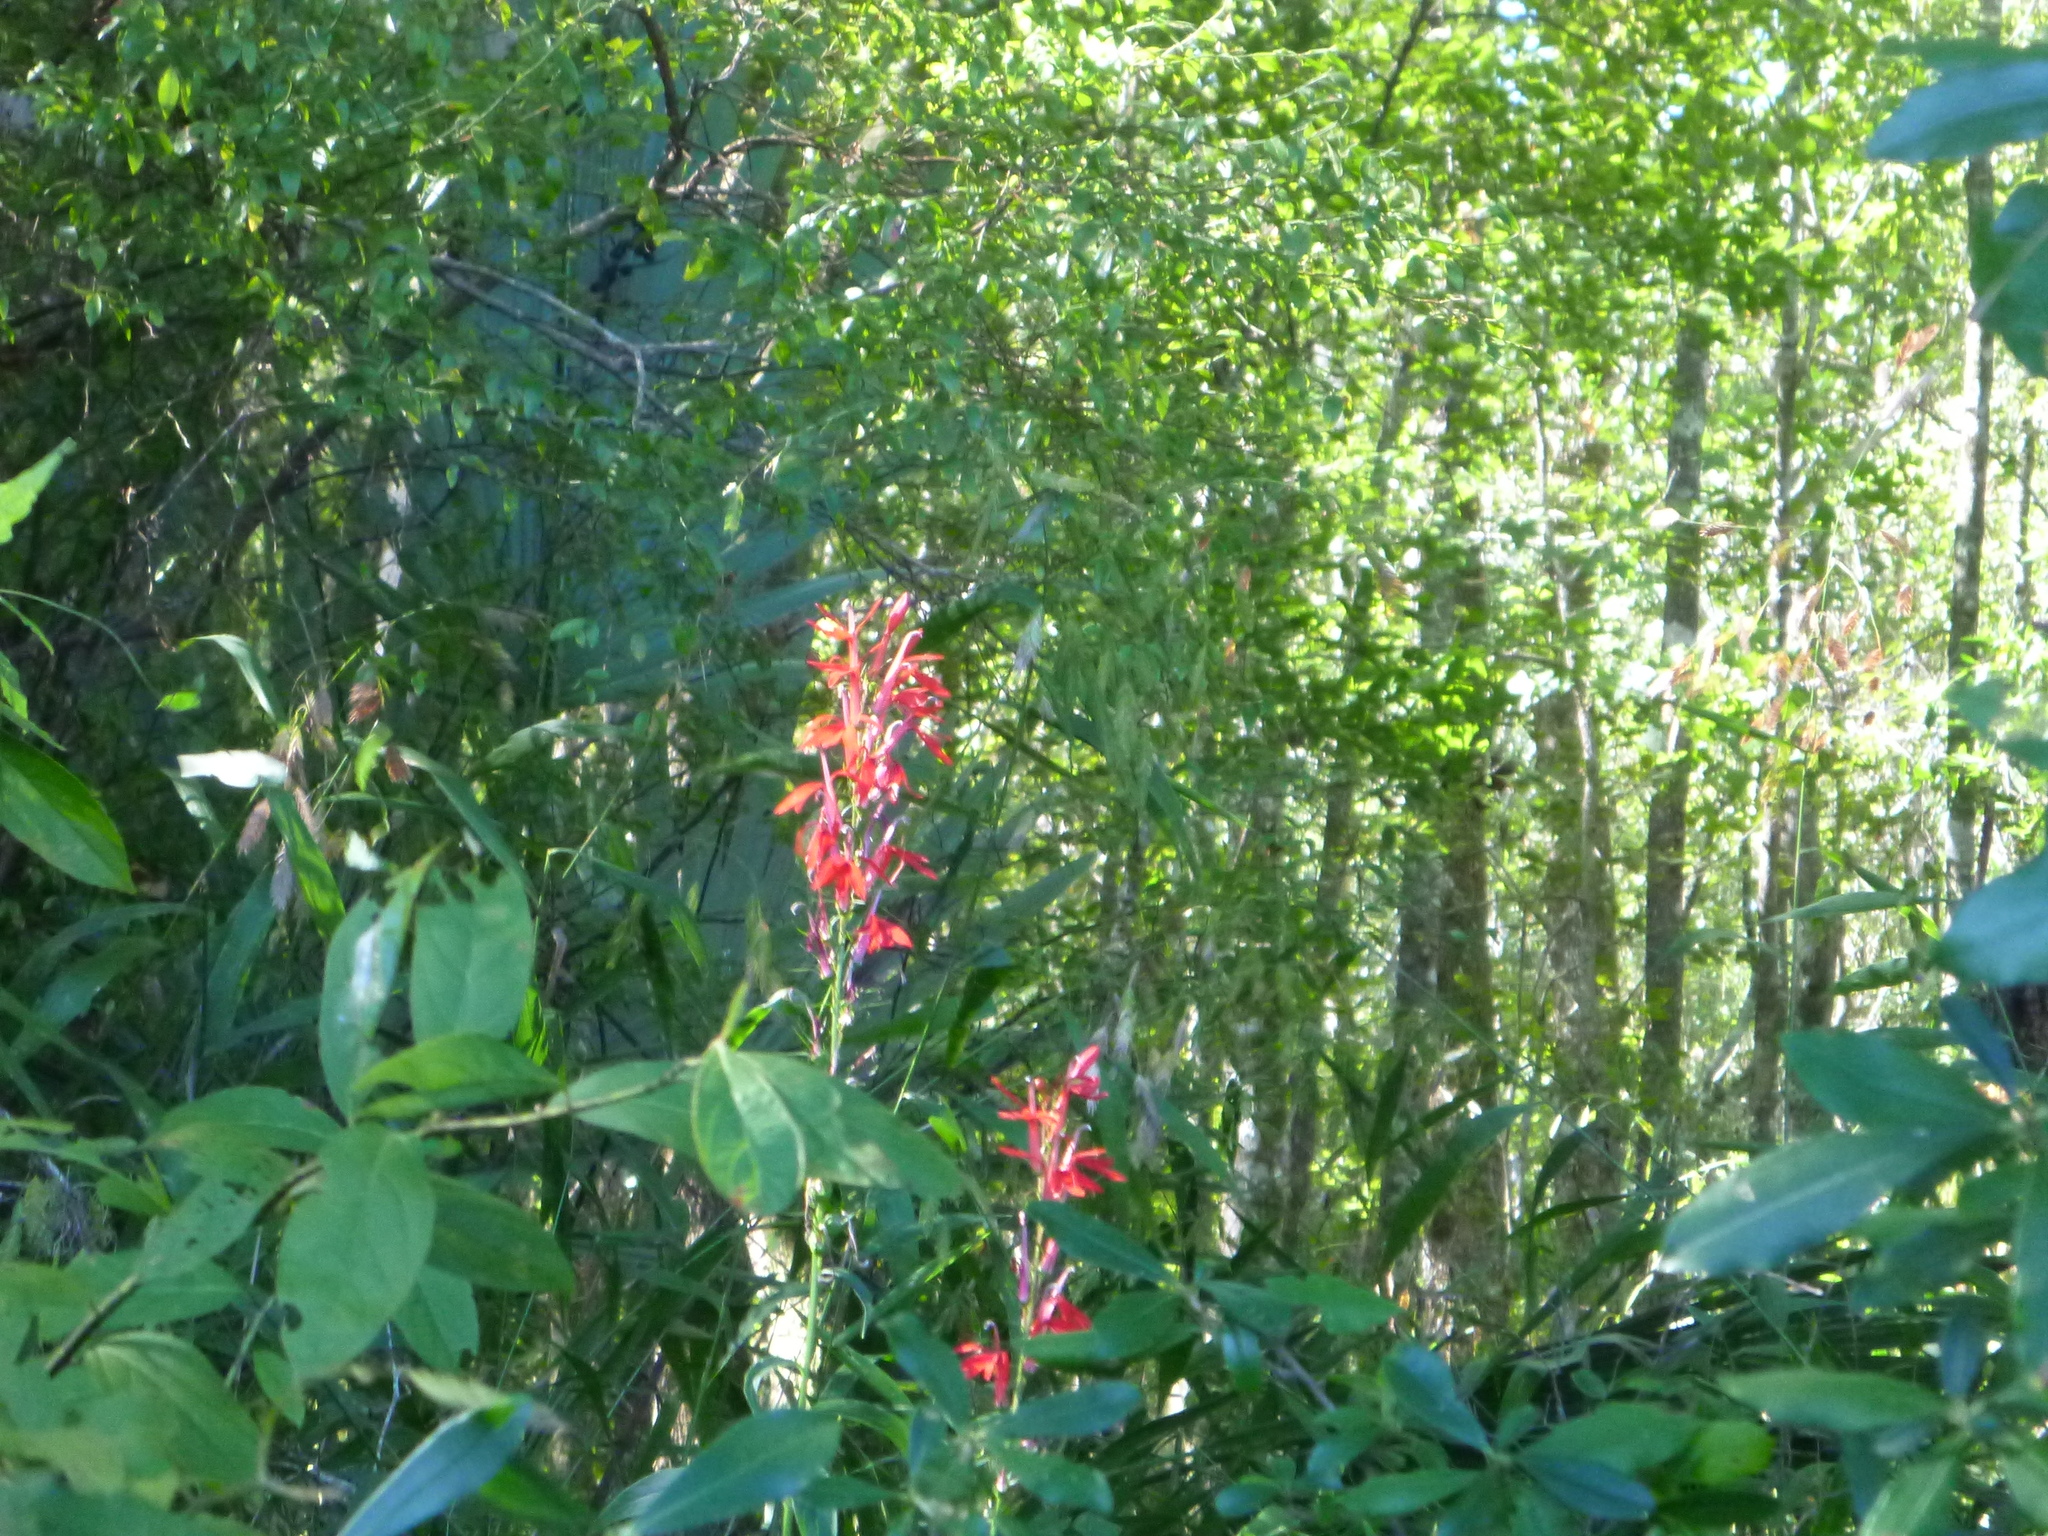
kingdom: Plantae
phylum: Tracheophyta
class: Magnoliopsida
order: Asterales
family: Campanulaceae
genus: Lobelia
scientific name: Lobelia cardinalis
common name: Cardinal flower
